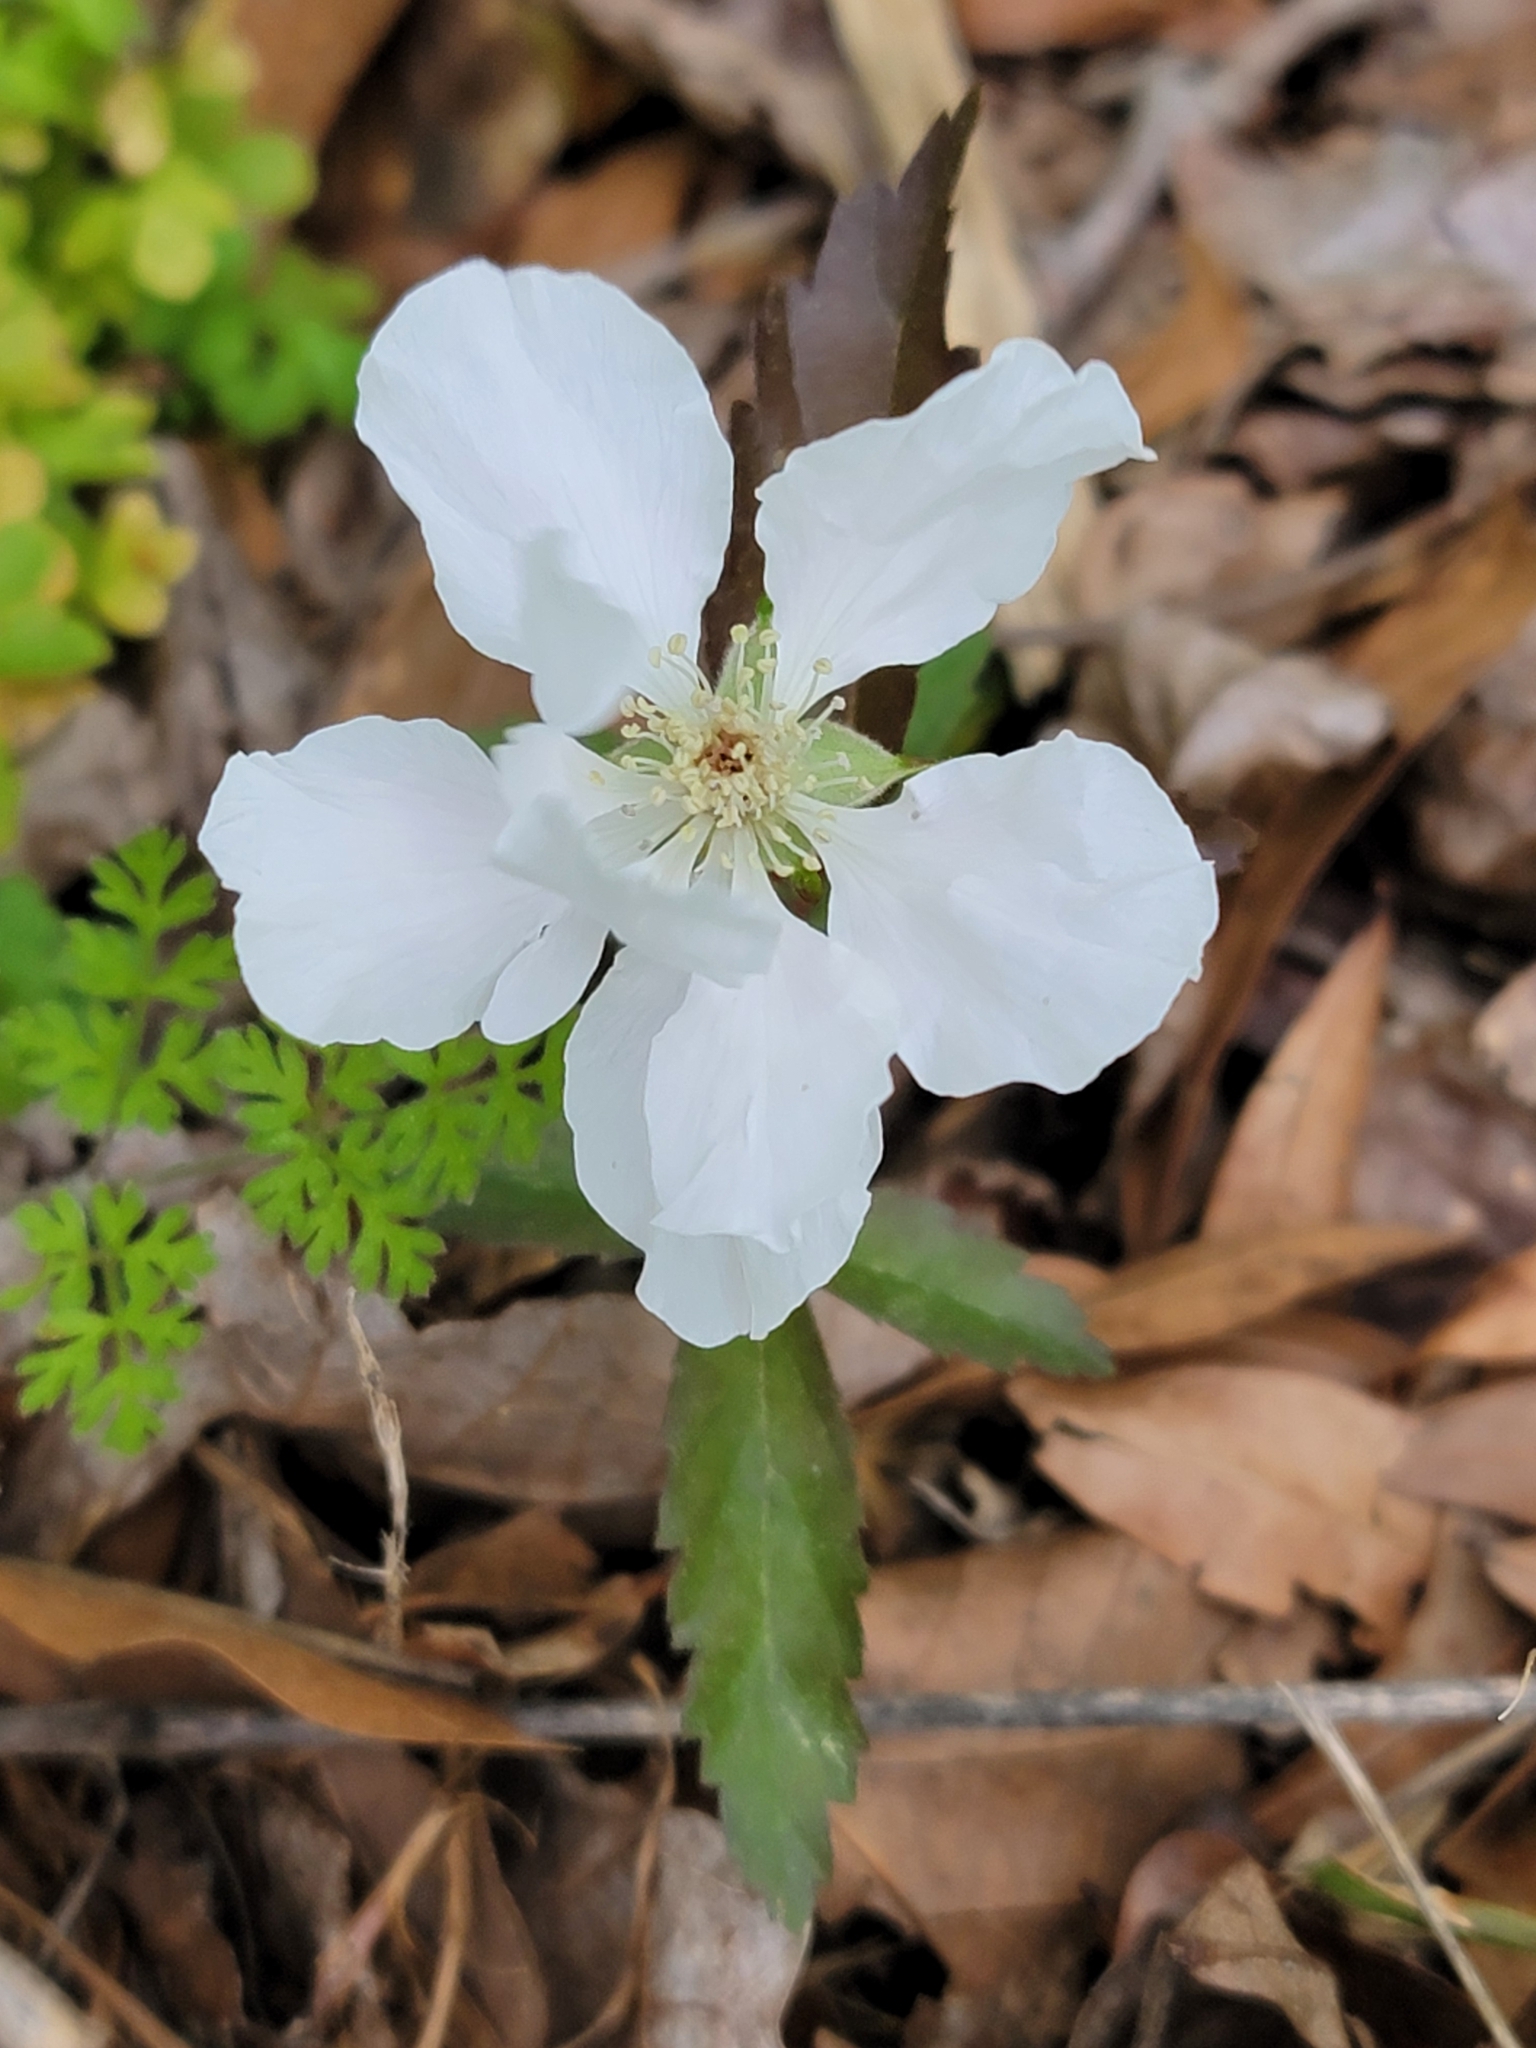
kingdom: Plantae
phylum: Tracheophyta
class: Magnoliopsida
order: Rosales
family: Rosaceae
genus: Rubus
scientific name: Rubus trivialis
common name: Southern dewberry
